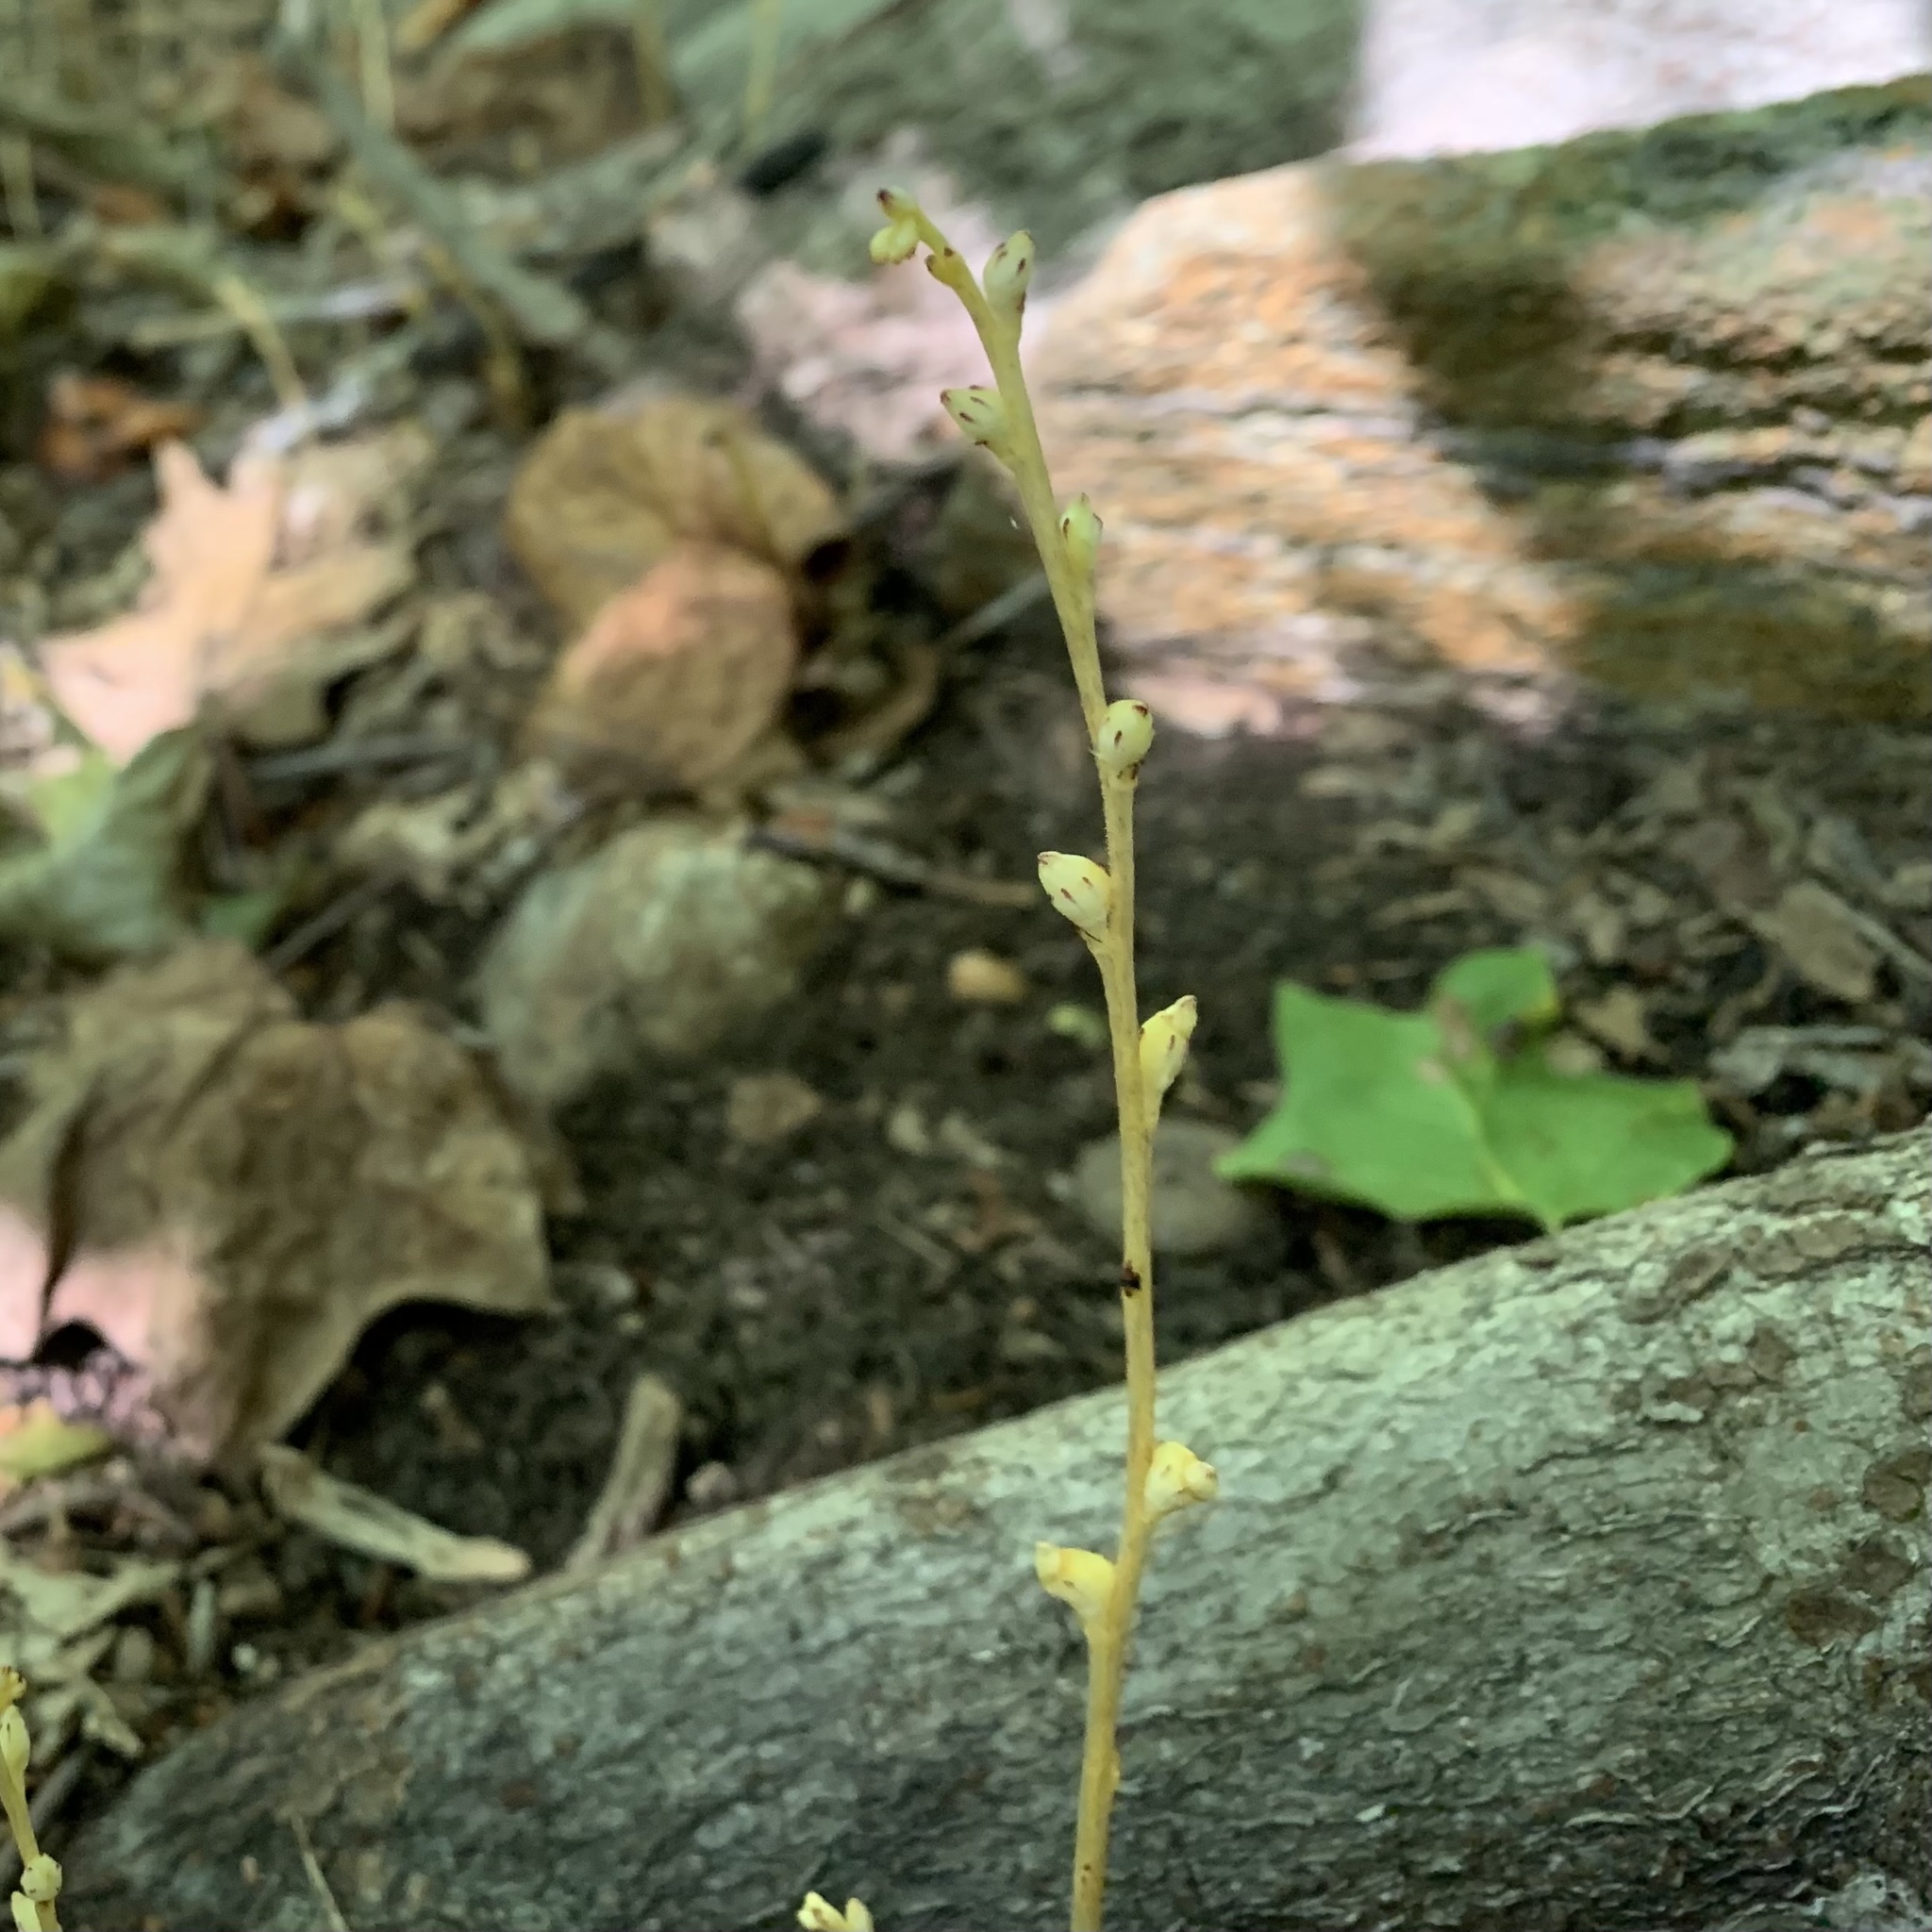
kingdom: Plantae
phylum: Tracheophyta
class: Magnoliopsida
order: Lamiales
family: Orobanchaceae
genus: Epifagus
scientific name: Epifagus virginiana
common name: Beechdrops
